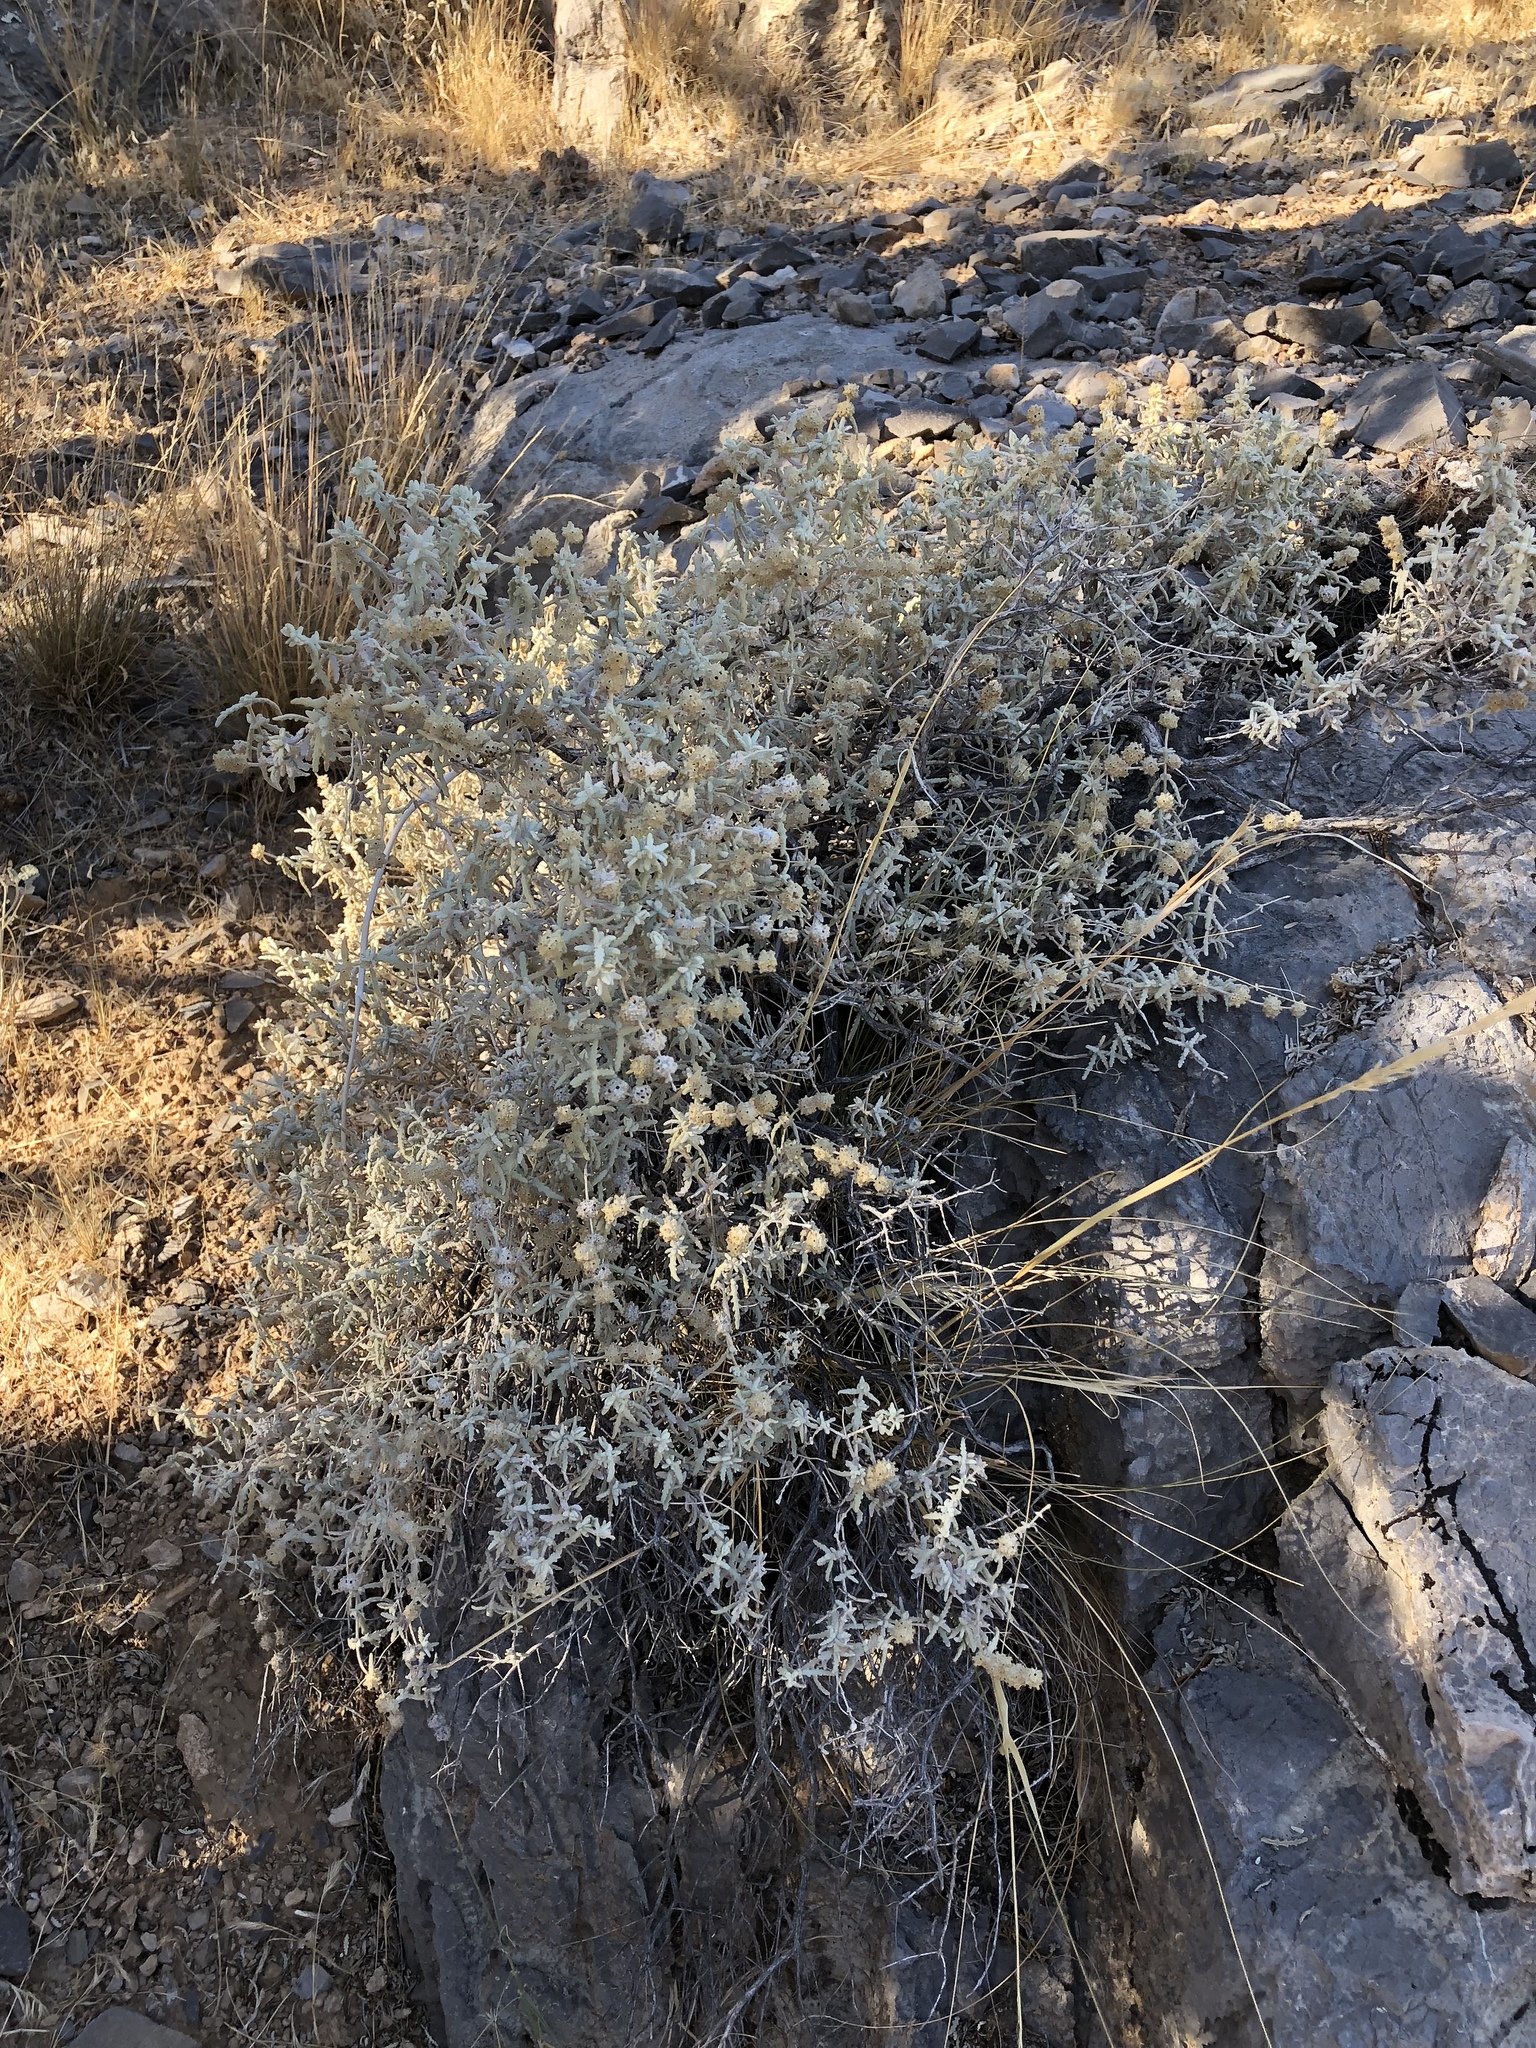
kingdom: Plantae
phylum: Tracheophyta
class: Magnoliopsida
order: Lamiales
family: Scrophulariaceae
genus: Buddleja
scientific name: Buddleja utahensis
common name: Utah butterfly-bush
